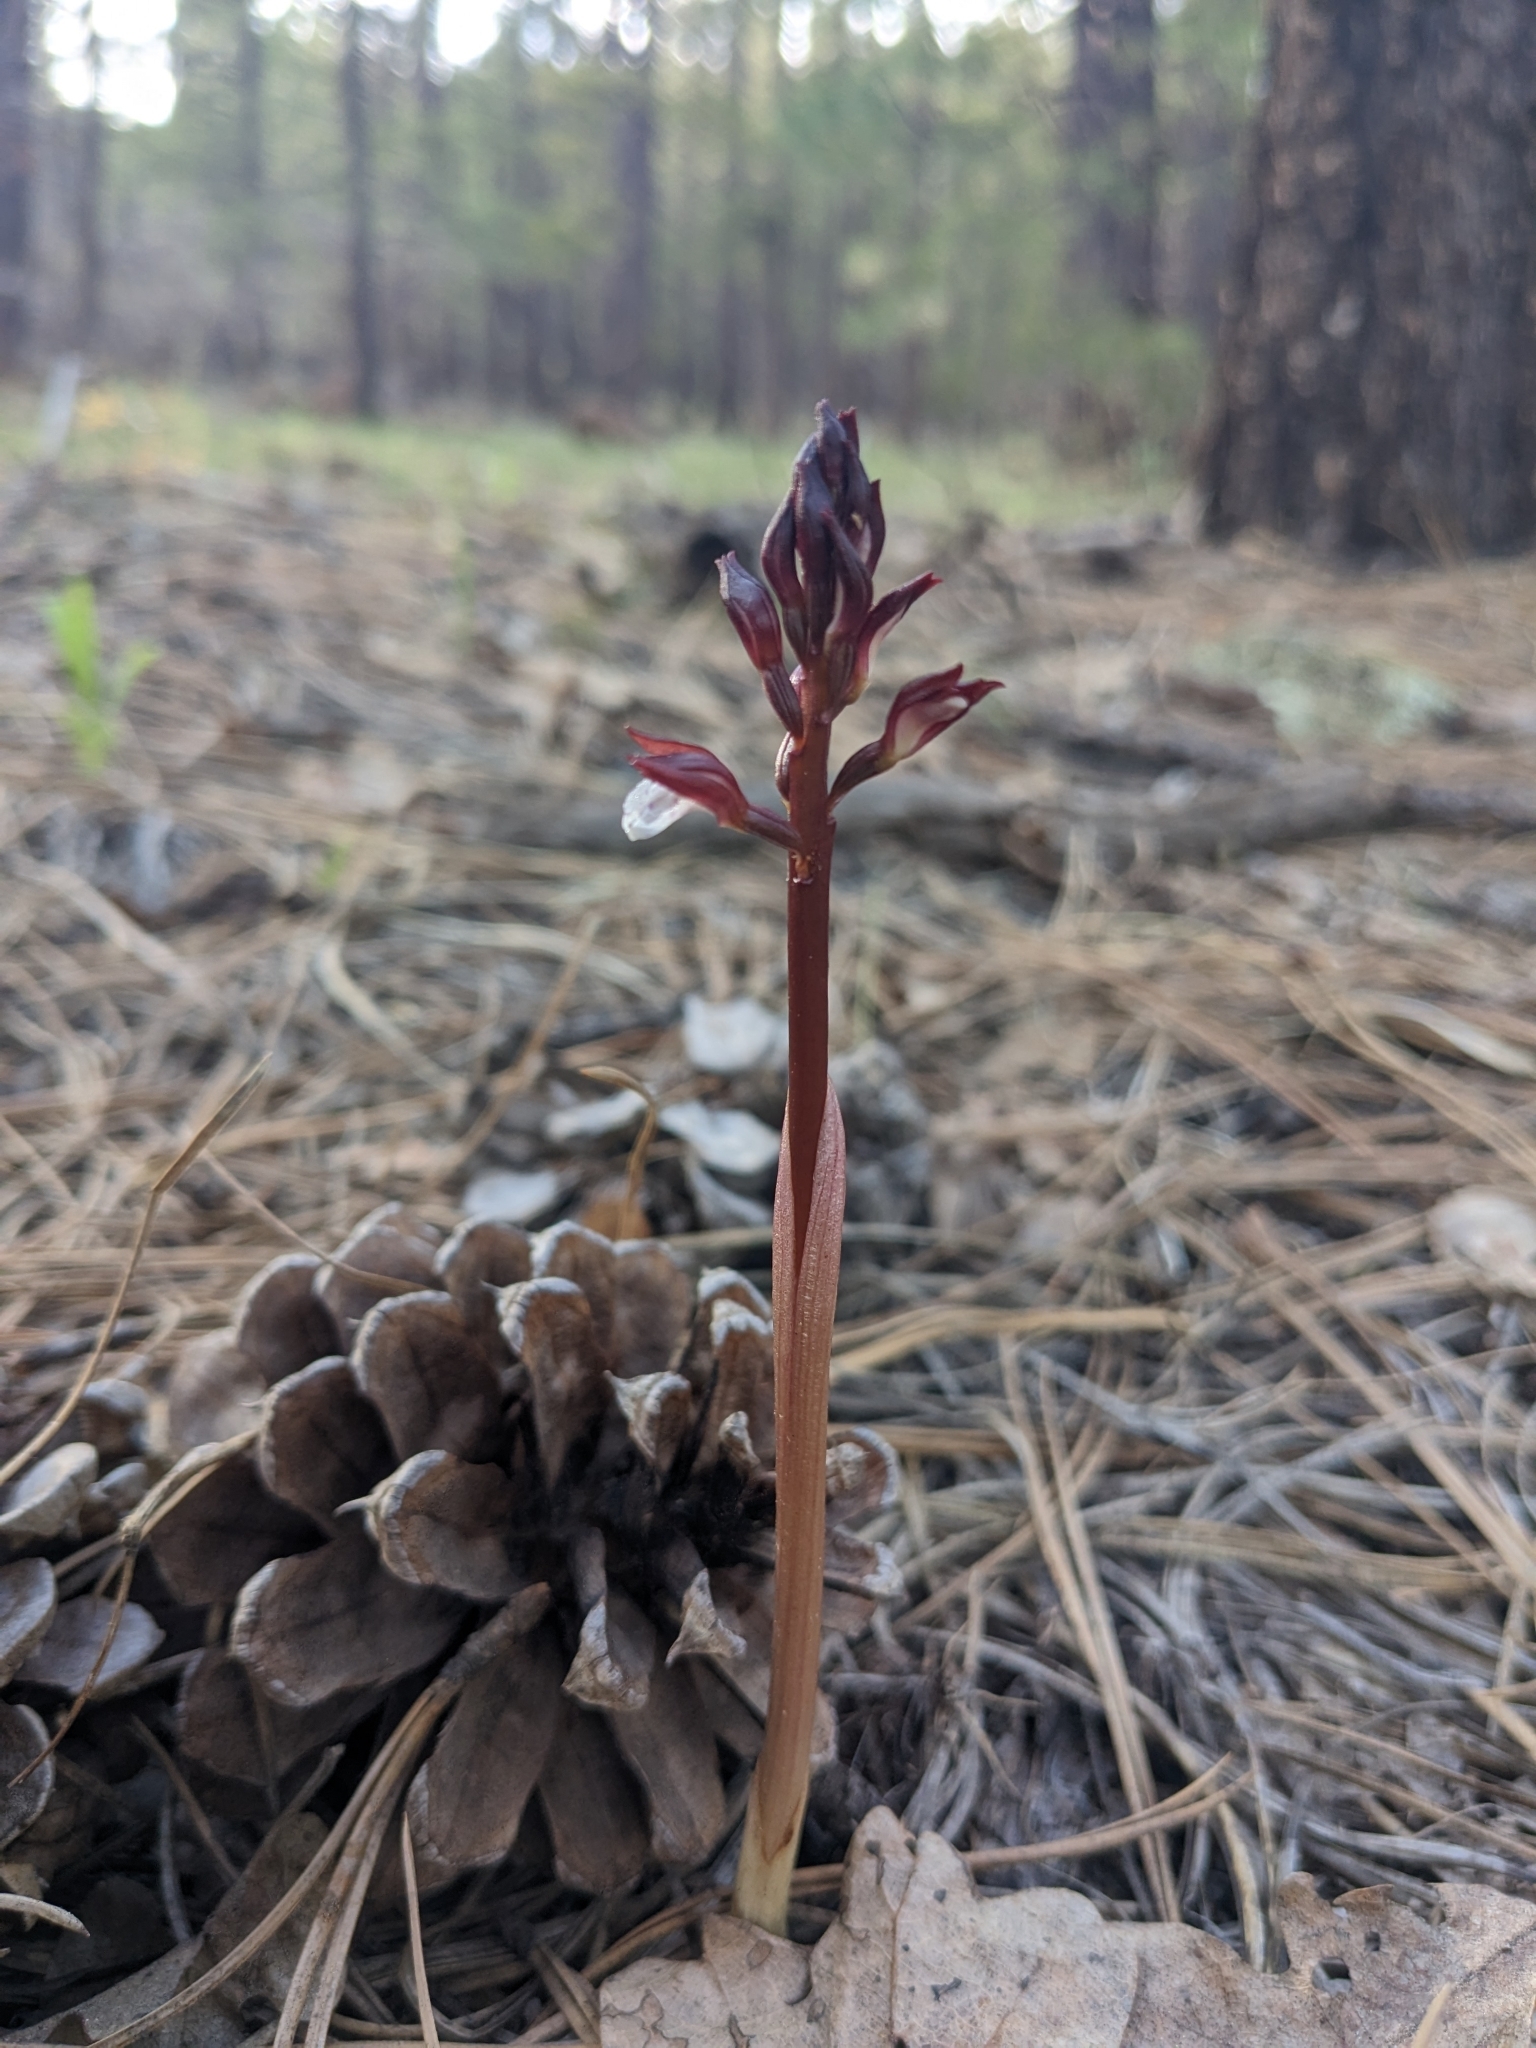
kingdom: Plantae
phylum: Tracheophyta
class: Liliopsida
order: Asparagales
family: Orchidaceae
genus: Corallorhiza
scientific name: Corallorhiza wisteriana
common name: Spring coralroot
